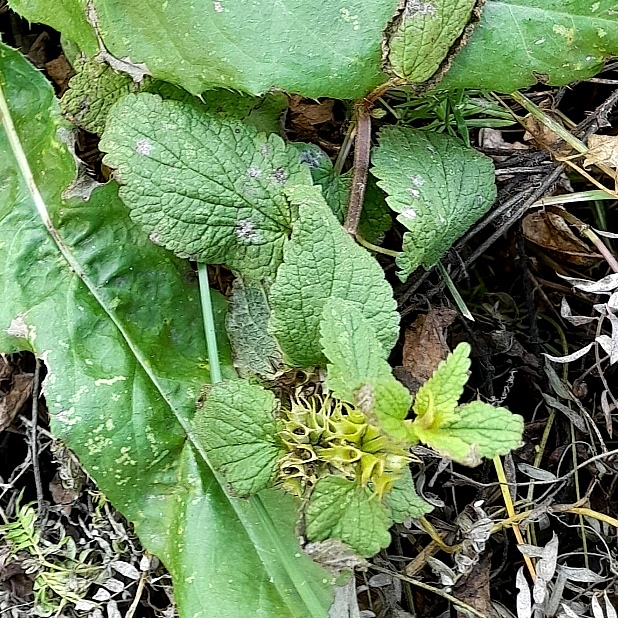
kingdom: Plantae
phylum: Tracheophyta
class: Magnoliopsida
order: Lamiales
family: Lamiaceae
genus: Lamium
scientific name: Lamium album
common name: White dead-nettle
